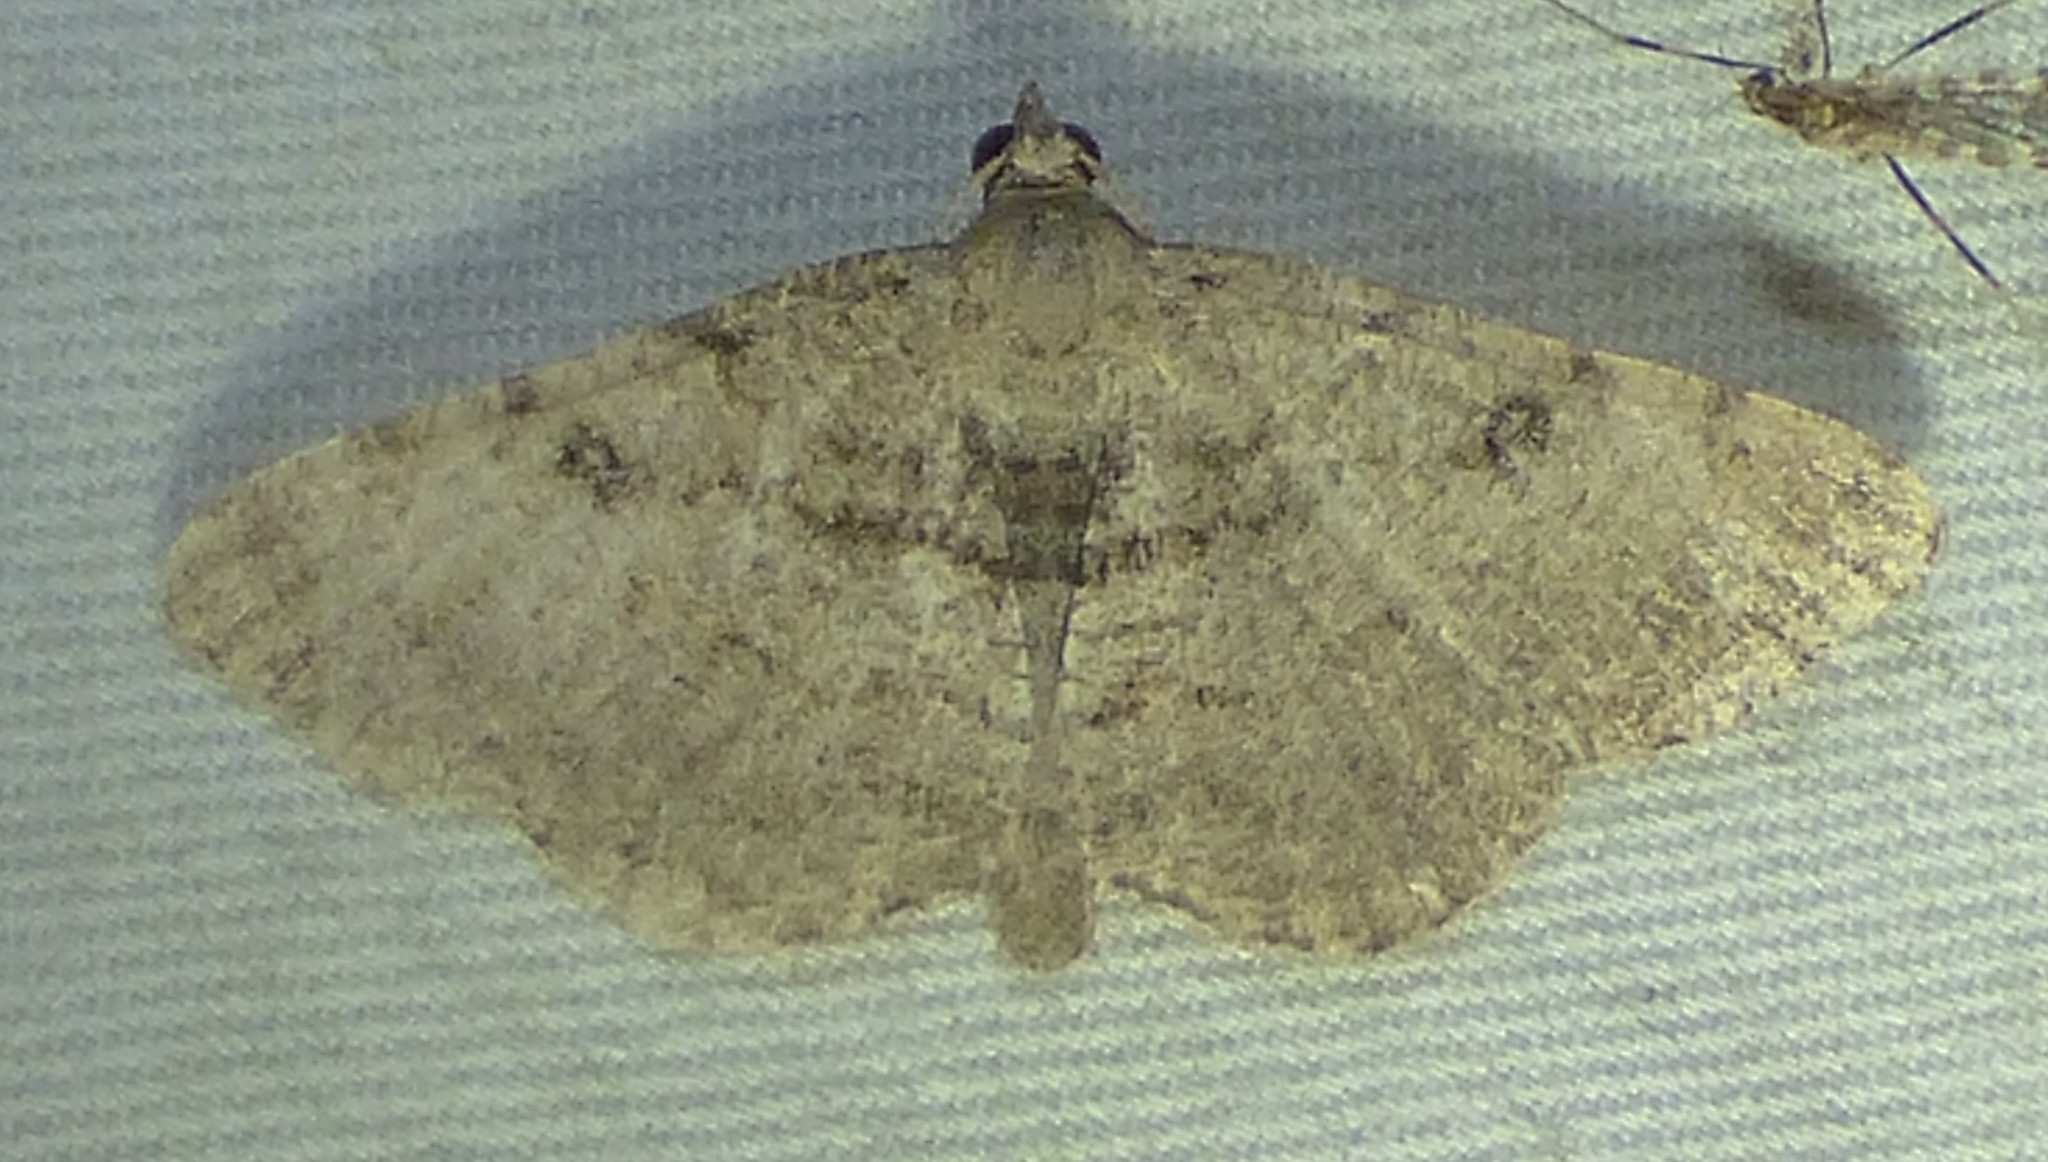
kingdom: Animalia
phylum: Arthropoda
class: Insecta
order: Lepidoptera
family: Geometridae
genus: Digrammia
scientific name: Digrammia gnophosaria
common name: Hollow-spotted angle
